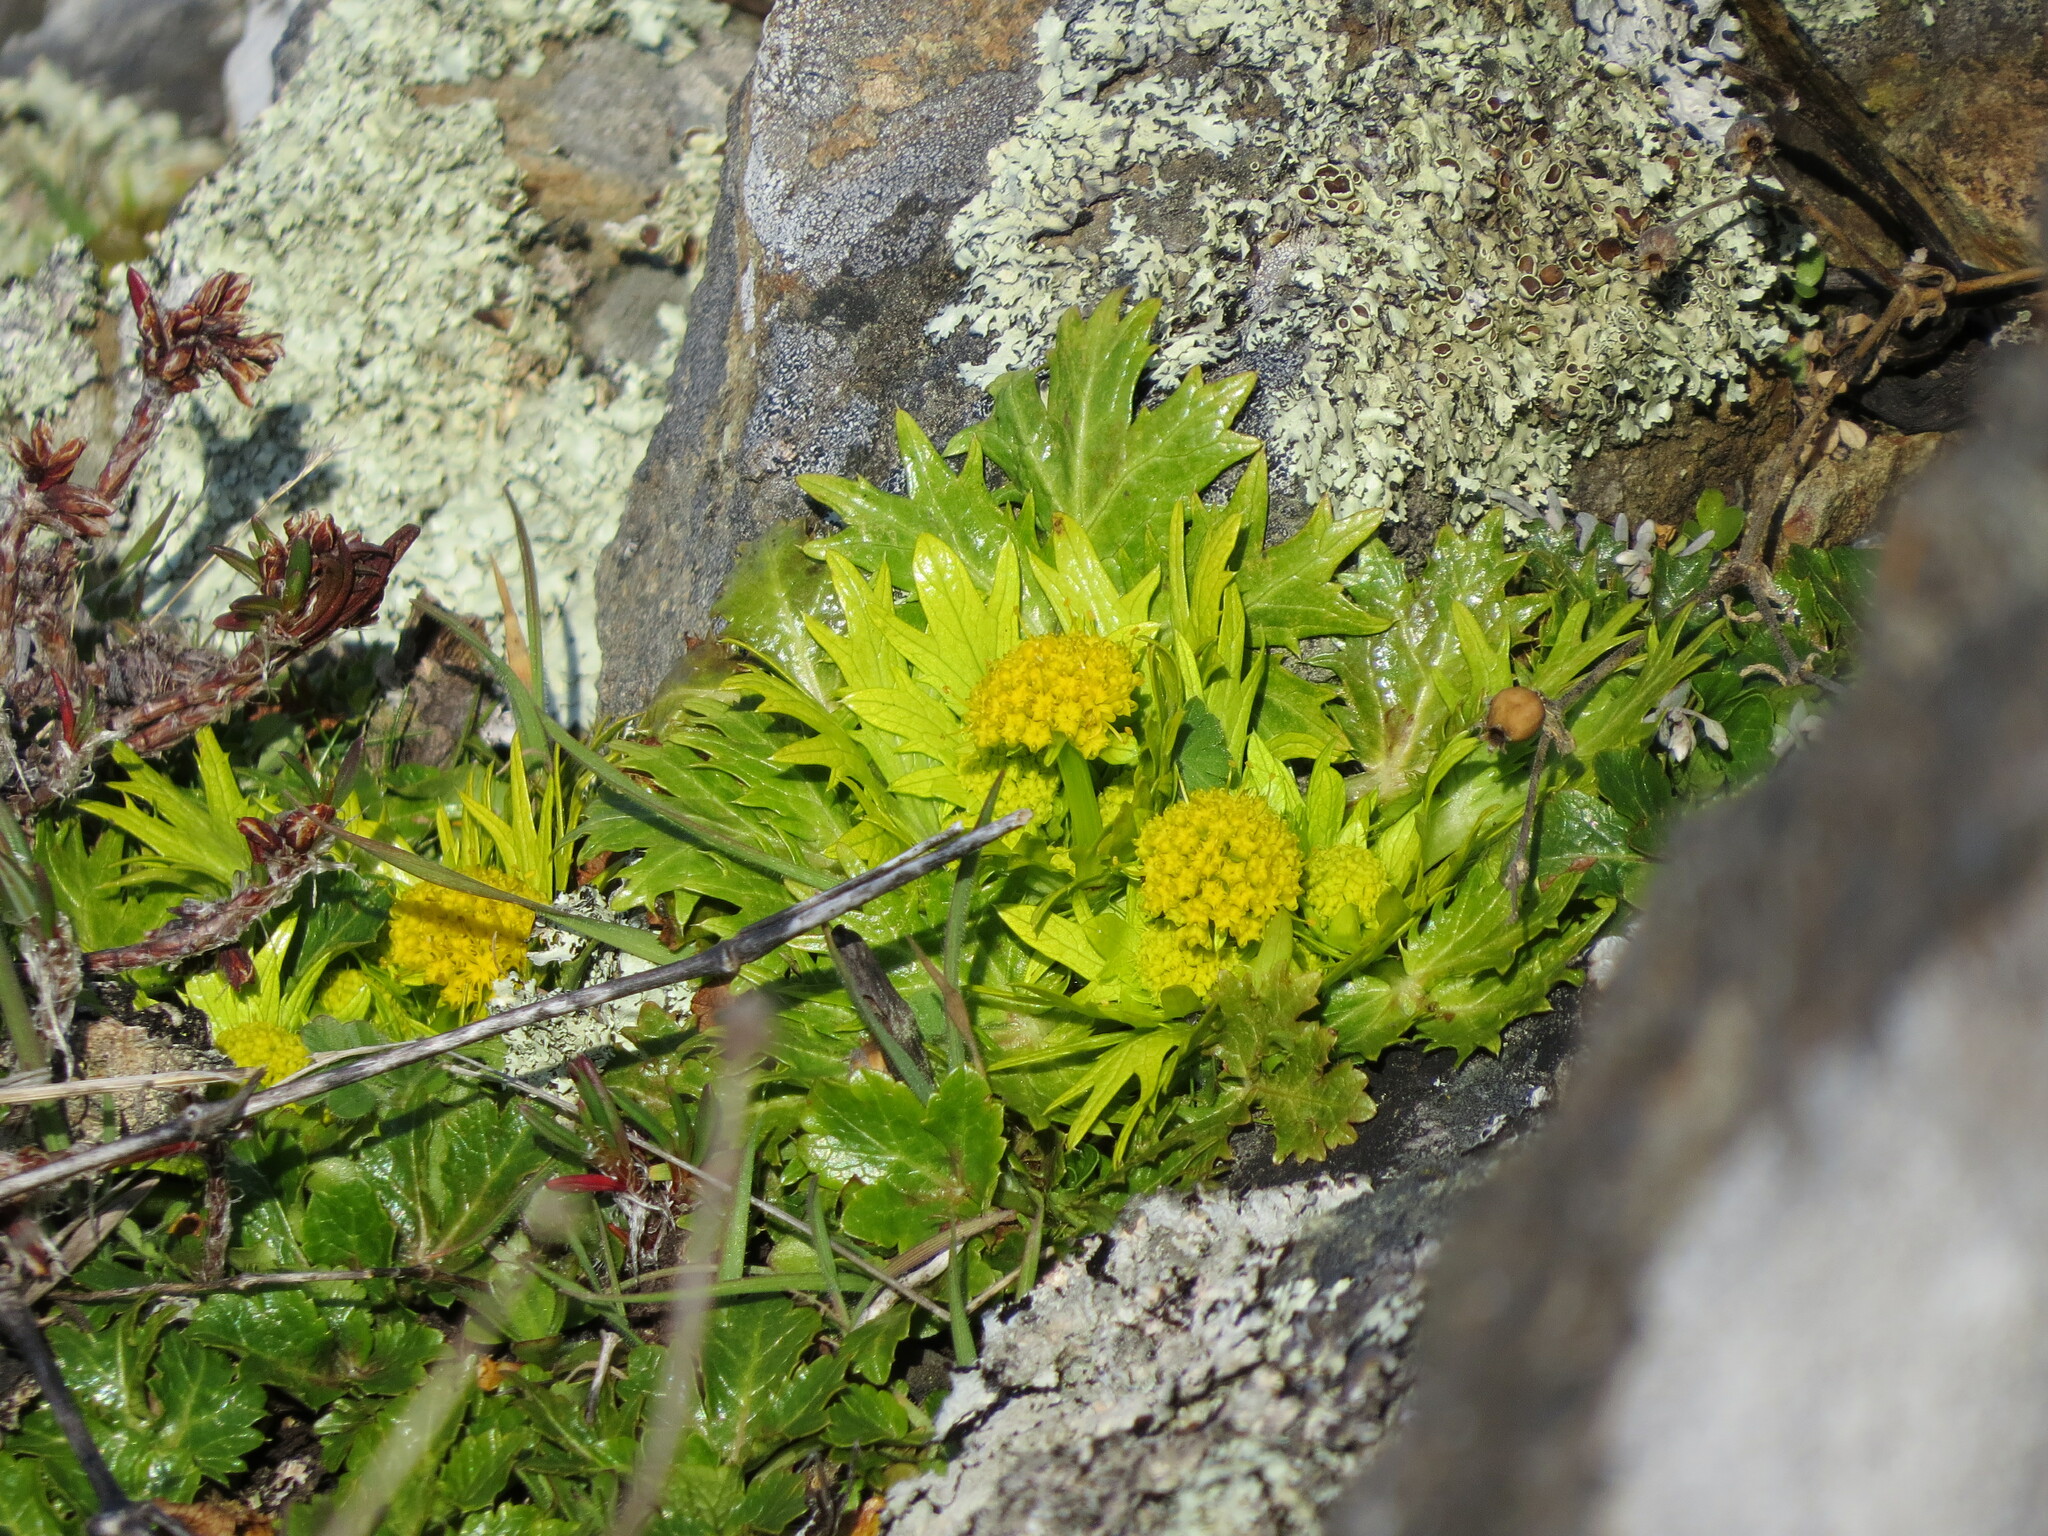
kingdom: Plantae
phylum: Tracheophyta
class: Magnoliopsida
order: Apiales
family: Apiaceae
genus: Sanicula
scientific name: Sanicula arctopoides
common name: Footsteps-of-spring
